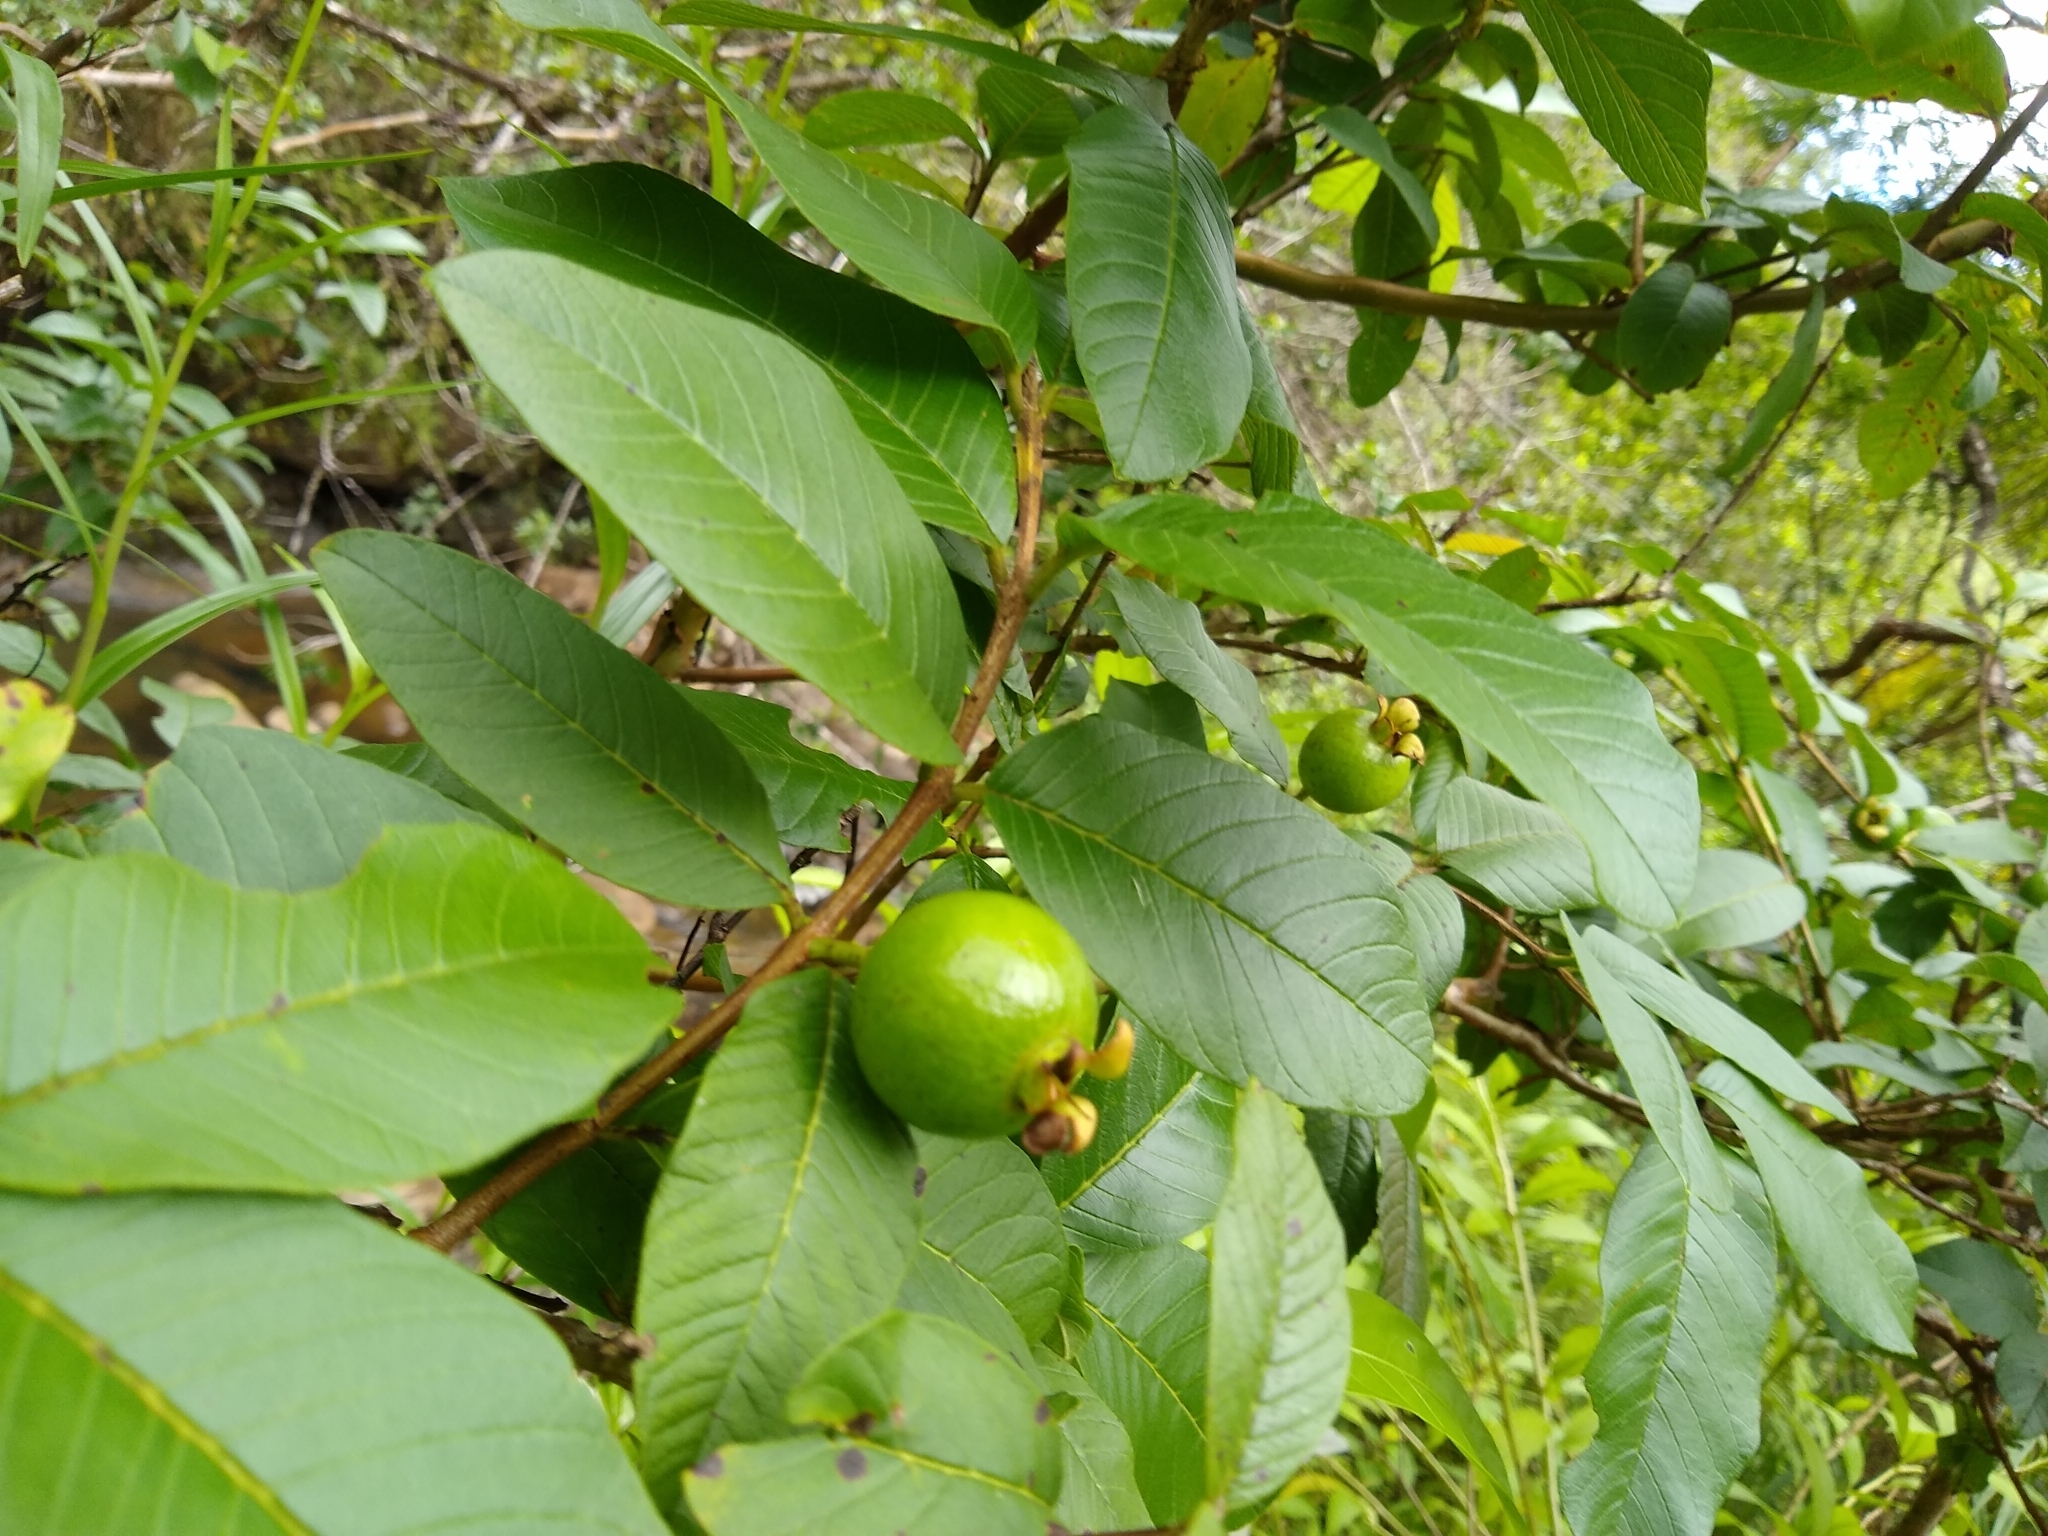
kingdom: Plantae
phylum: Tracheophyta
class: Magnoliopsida
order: Myrtales
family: Myrtaceae
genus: Psidium
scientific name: Psidium guajava
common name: Guava
